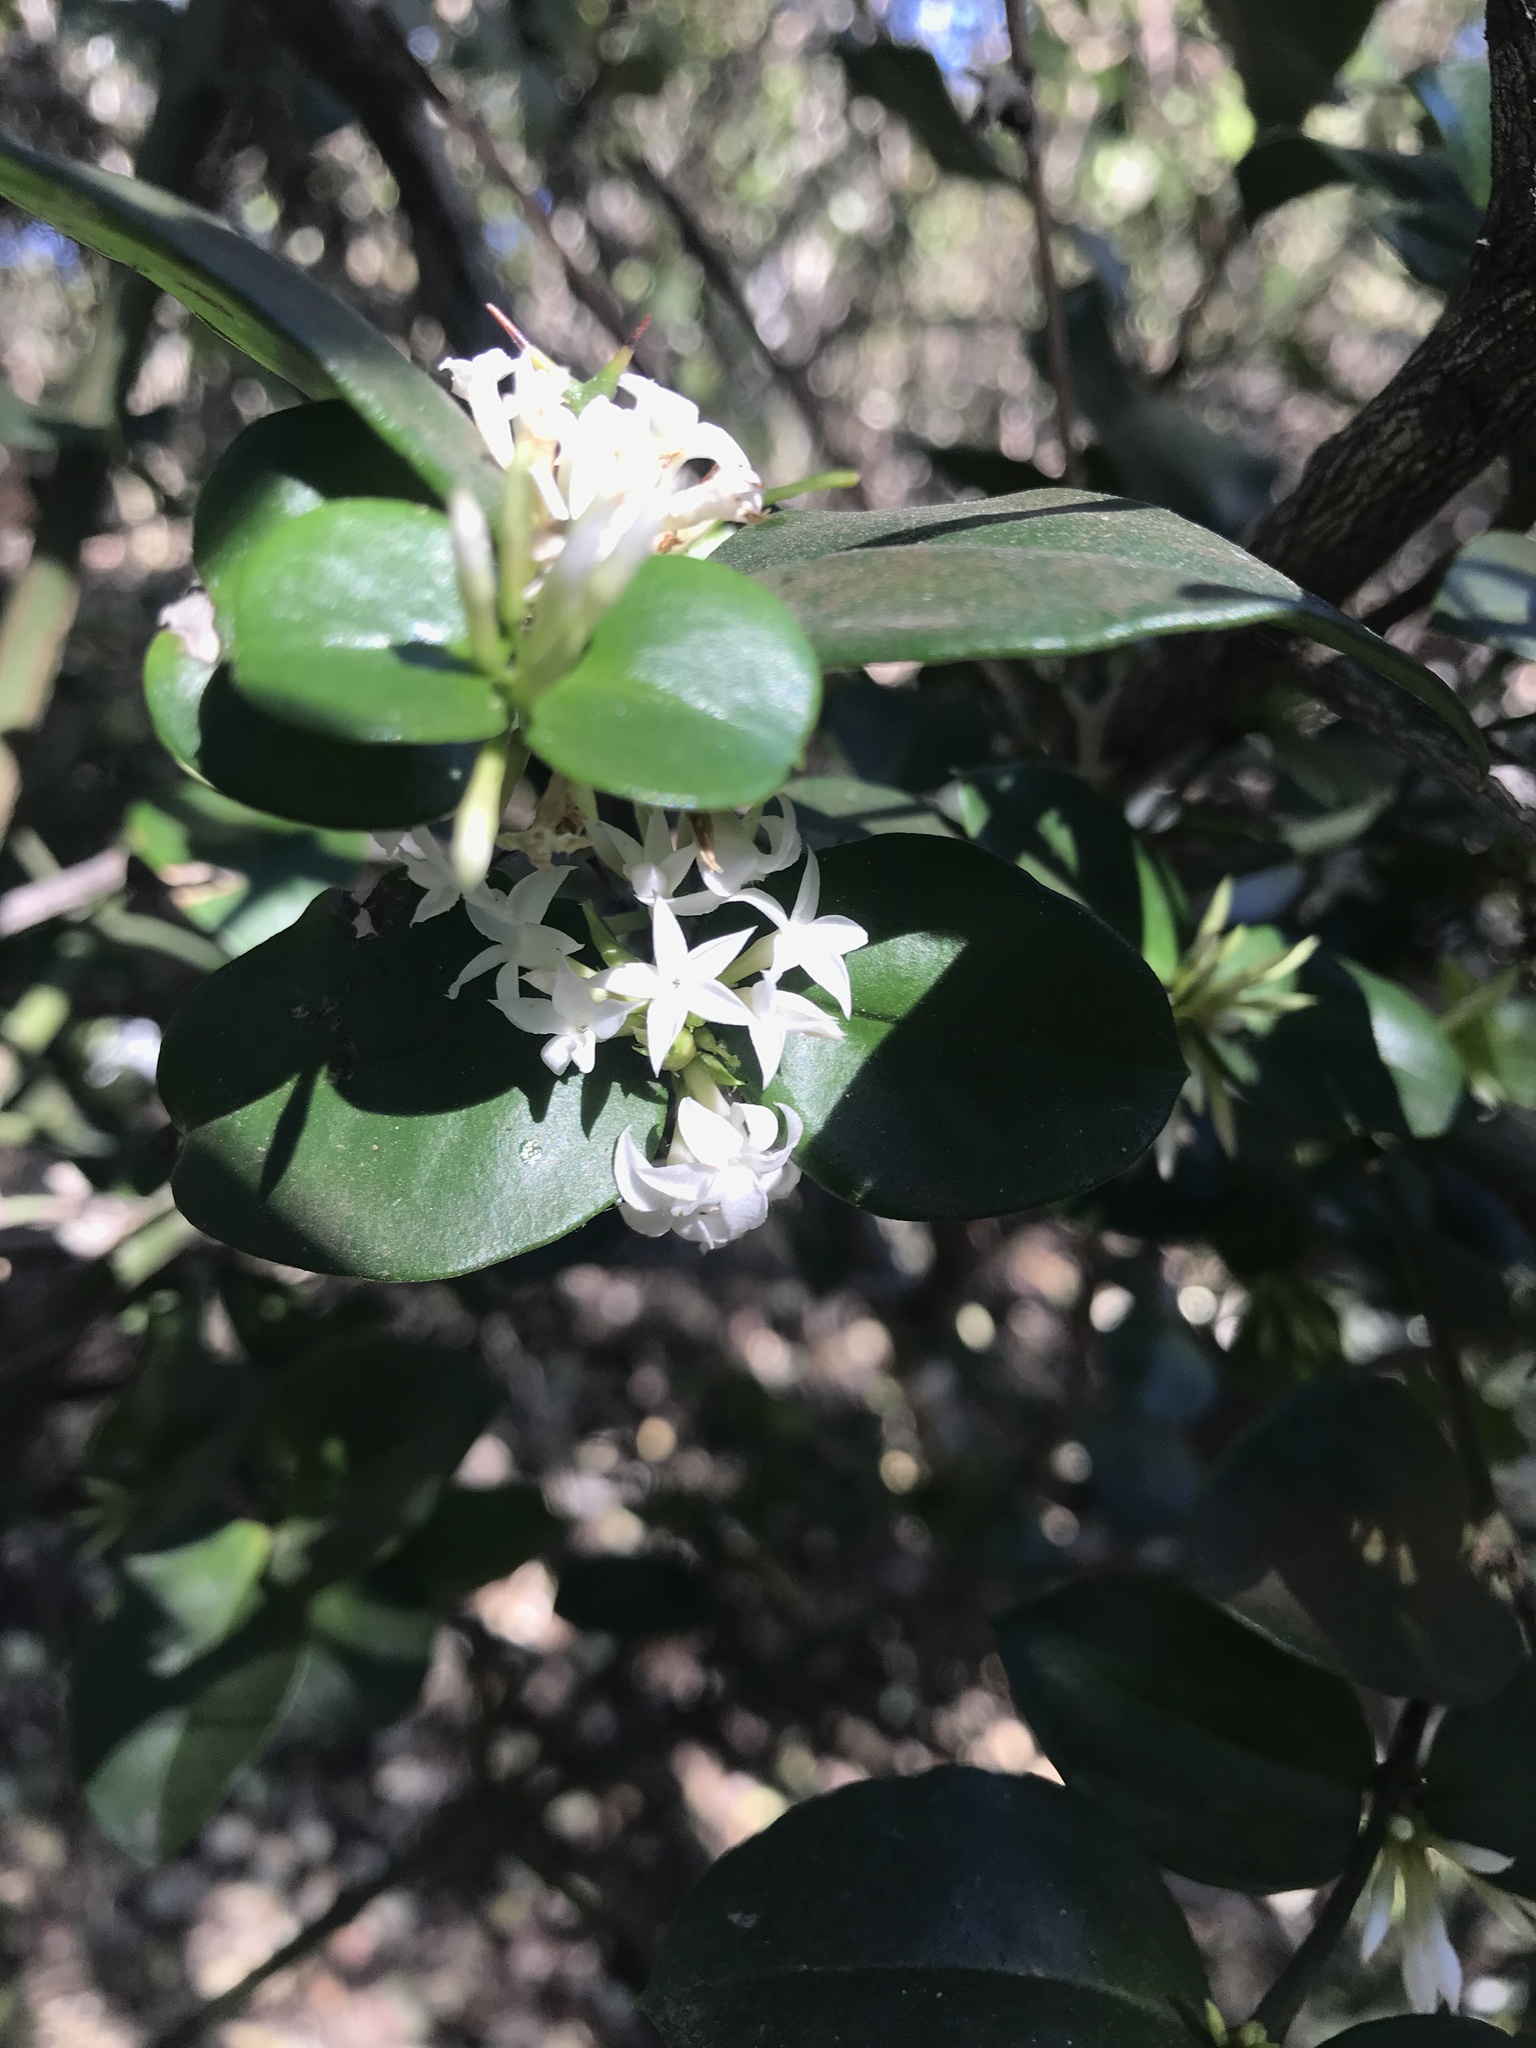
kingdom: Plantae
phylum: Tracheophyta
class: Magnoliopsida
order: Gentianales
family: Apocynaceae
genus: Carissa
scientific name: Carissa bispinosa
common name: Forest num-num
